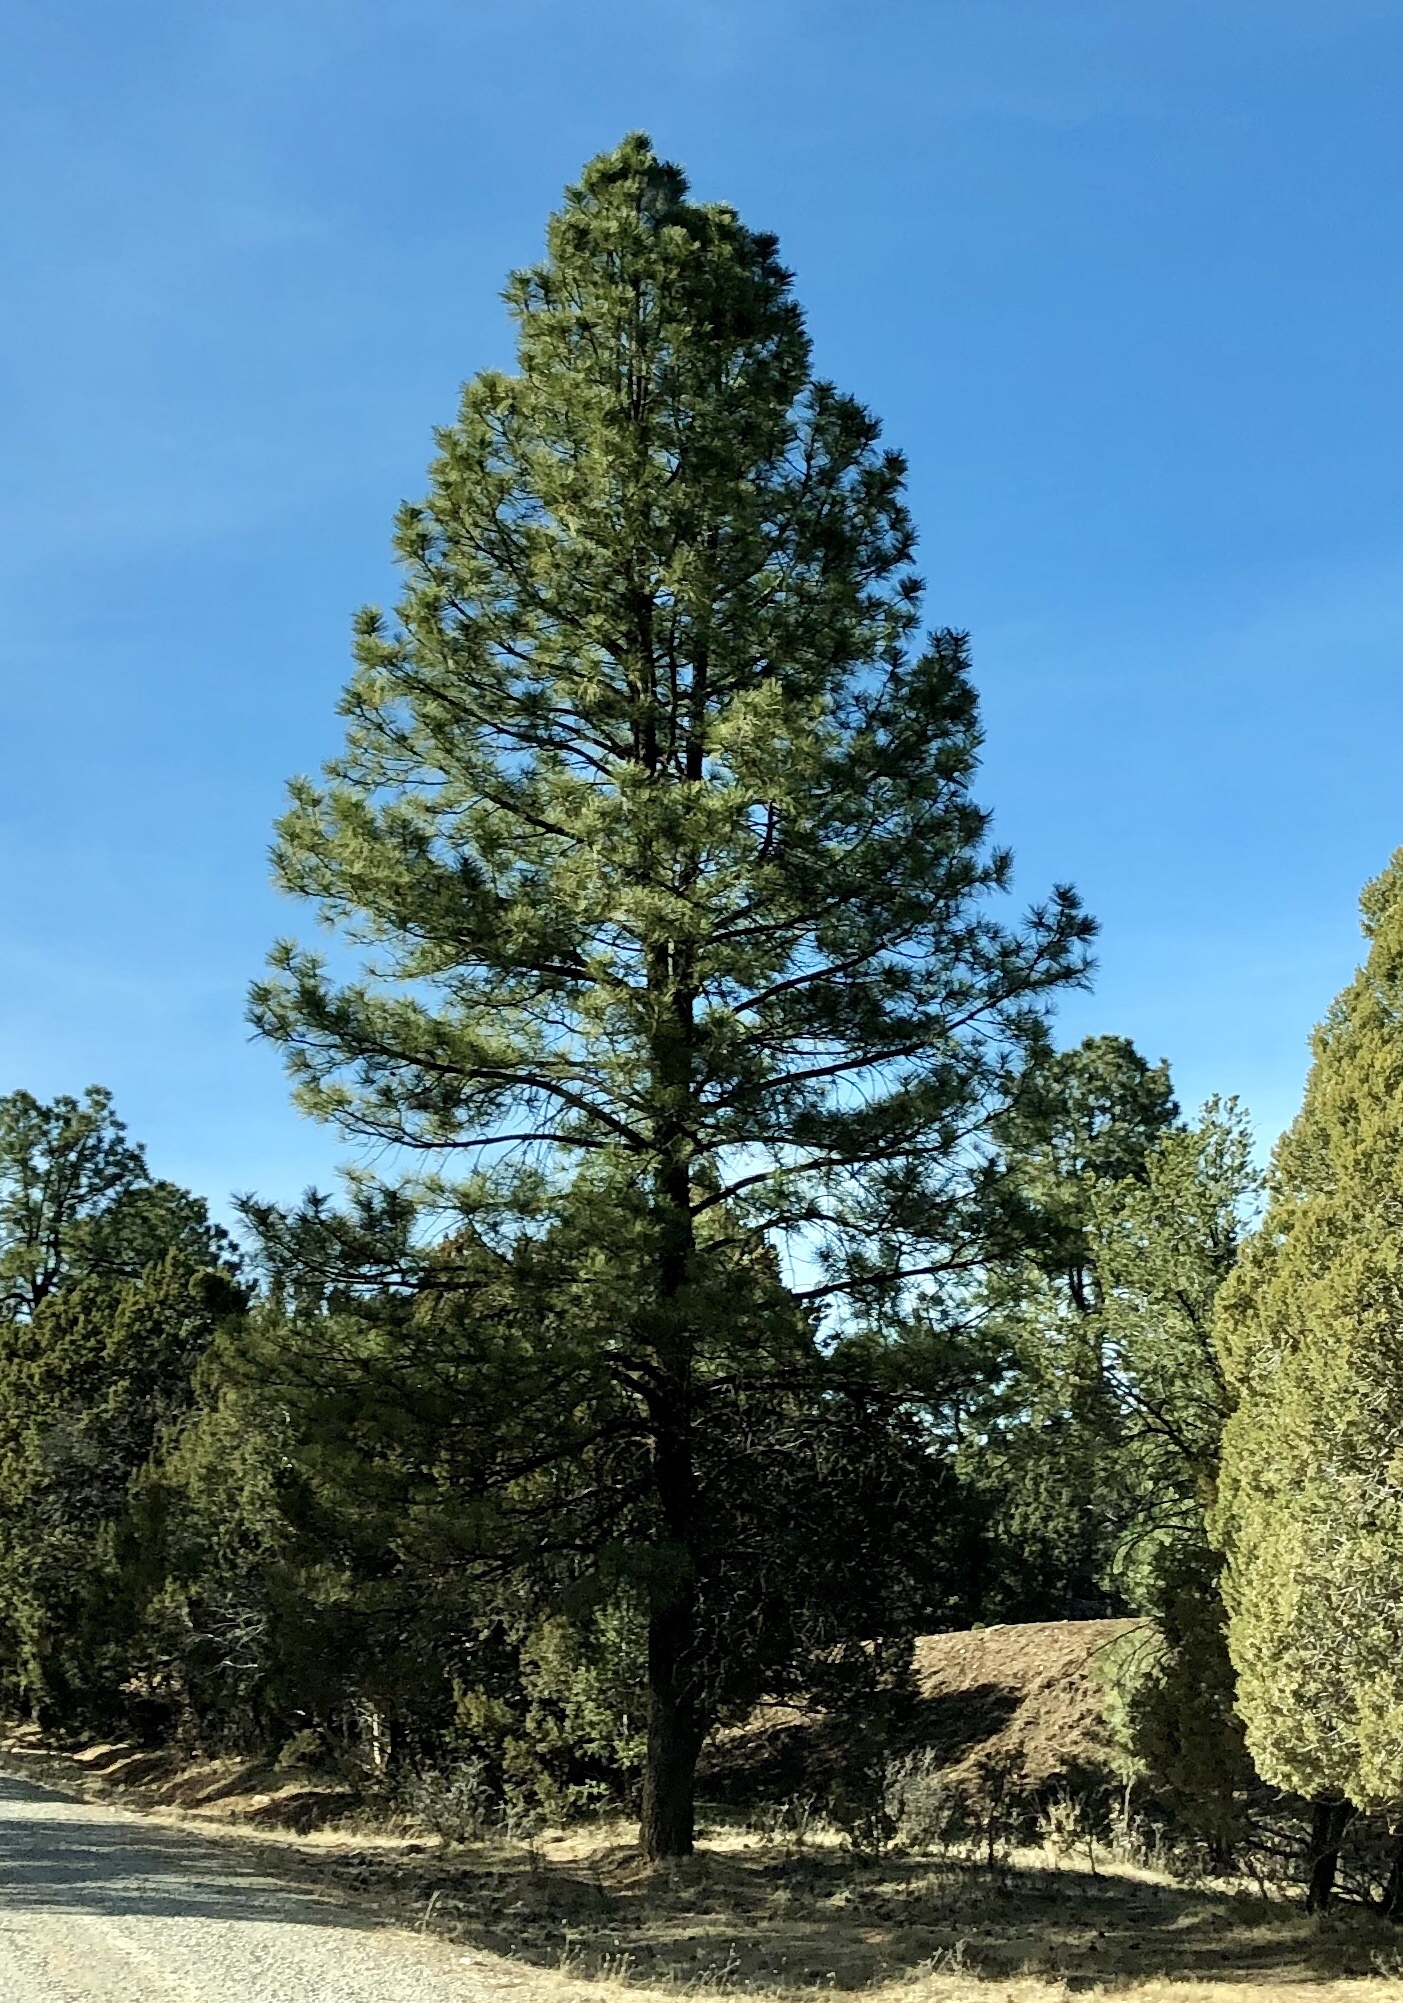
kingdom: Plantae
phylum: Tracheophyta
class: Pinopsida
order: Pinales
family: Pinaceae
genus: Pinus
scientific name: Pinus ponderosa
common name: Western yellow-pine
